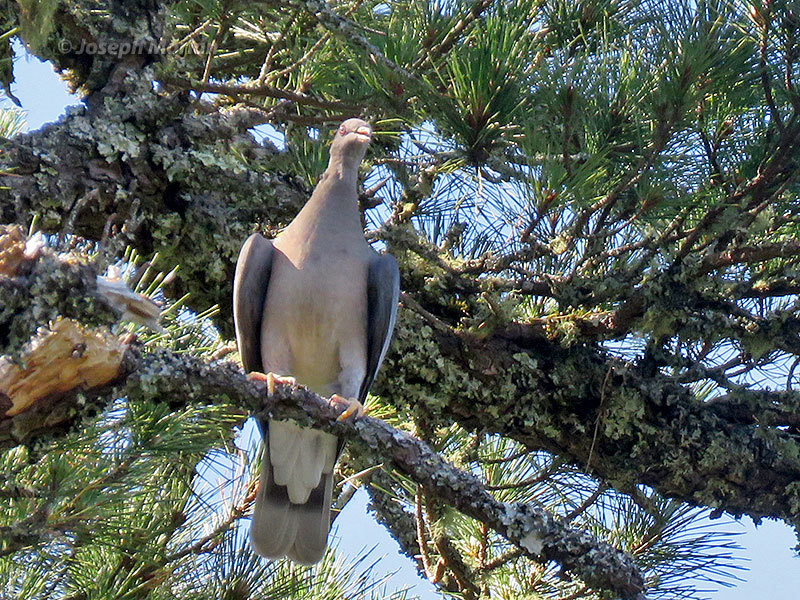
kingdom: Animalia
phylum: Chordata
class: Aves
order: Columbiformes
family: Columbidae
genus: Patagioenas
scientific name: Patagioenas fasciata
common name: Band-tailed pigeon
